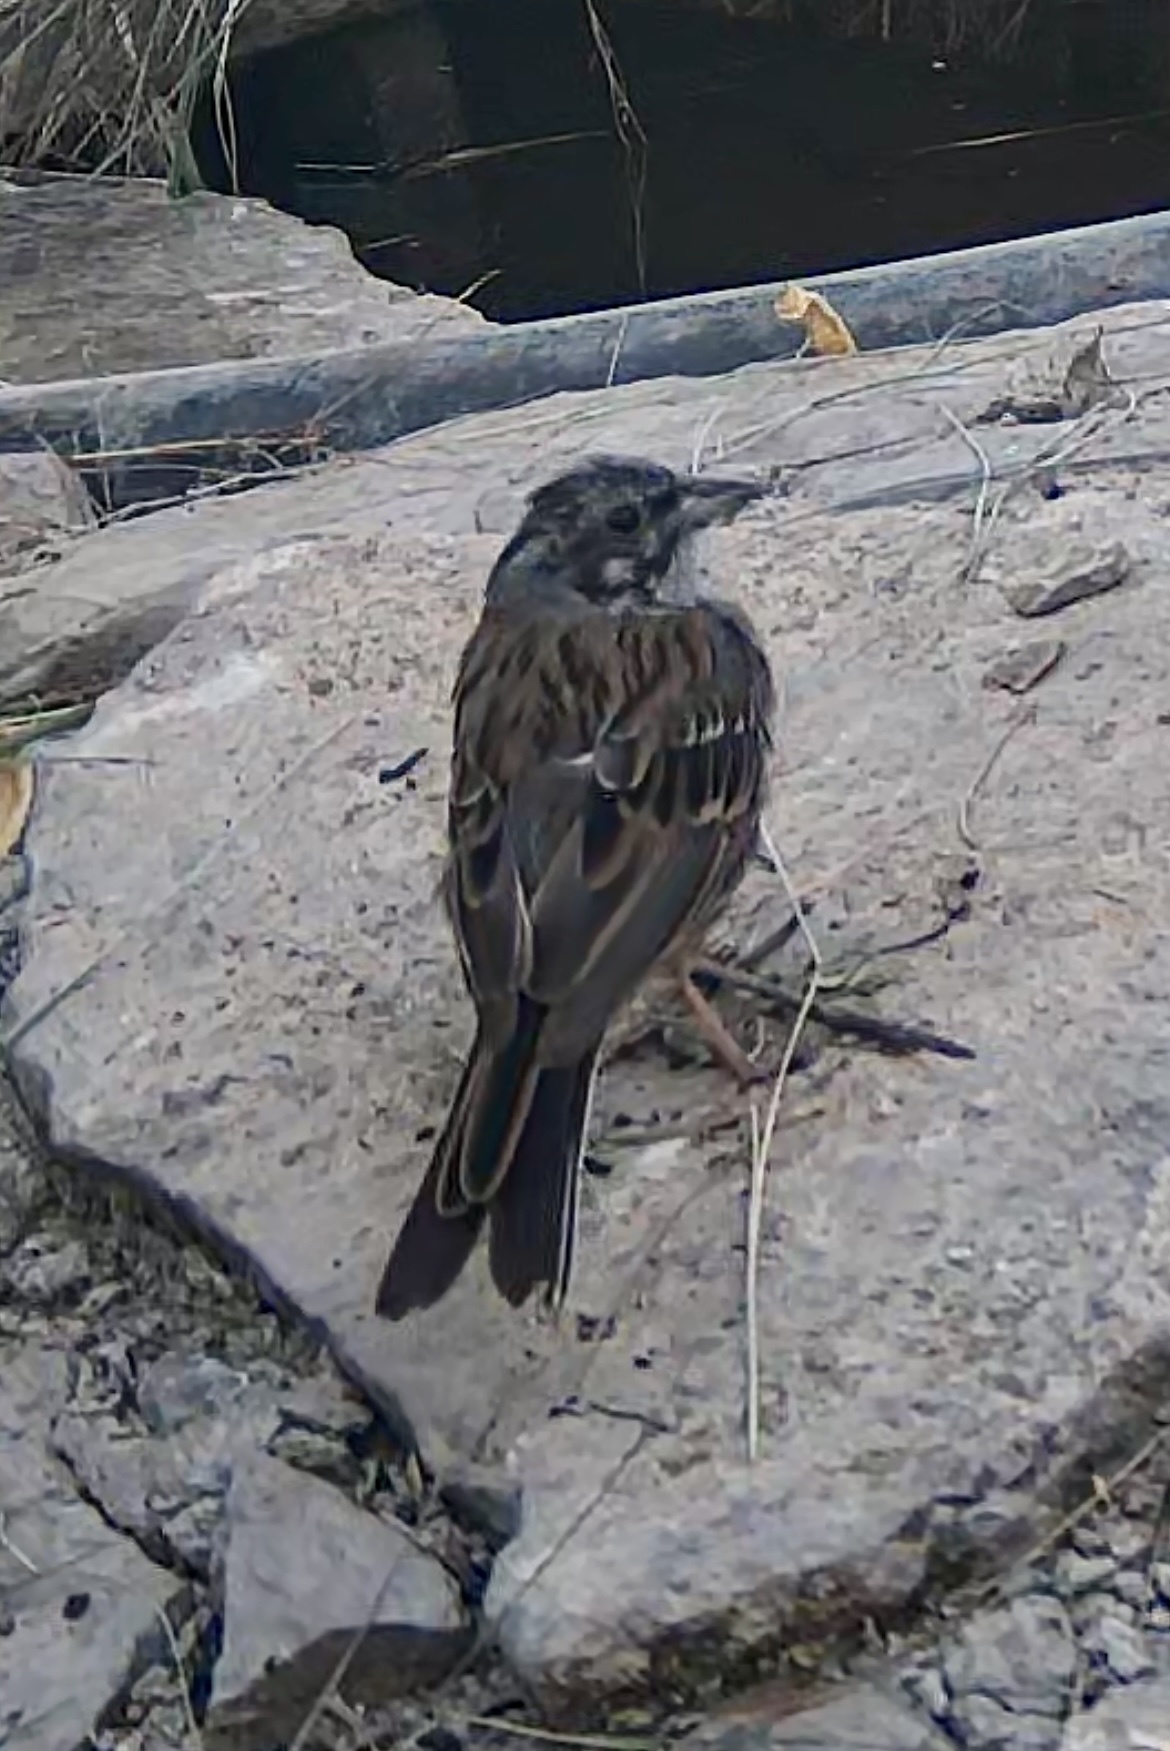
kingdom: Animalia
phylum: Chordata
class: Aves
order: Passeriformes
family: Emberizidae
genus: Emberiza
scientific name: Emberiza cia
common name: Rock bunting
